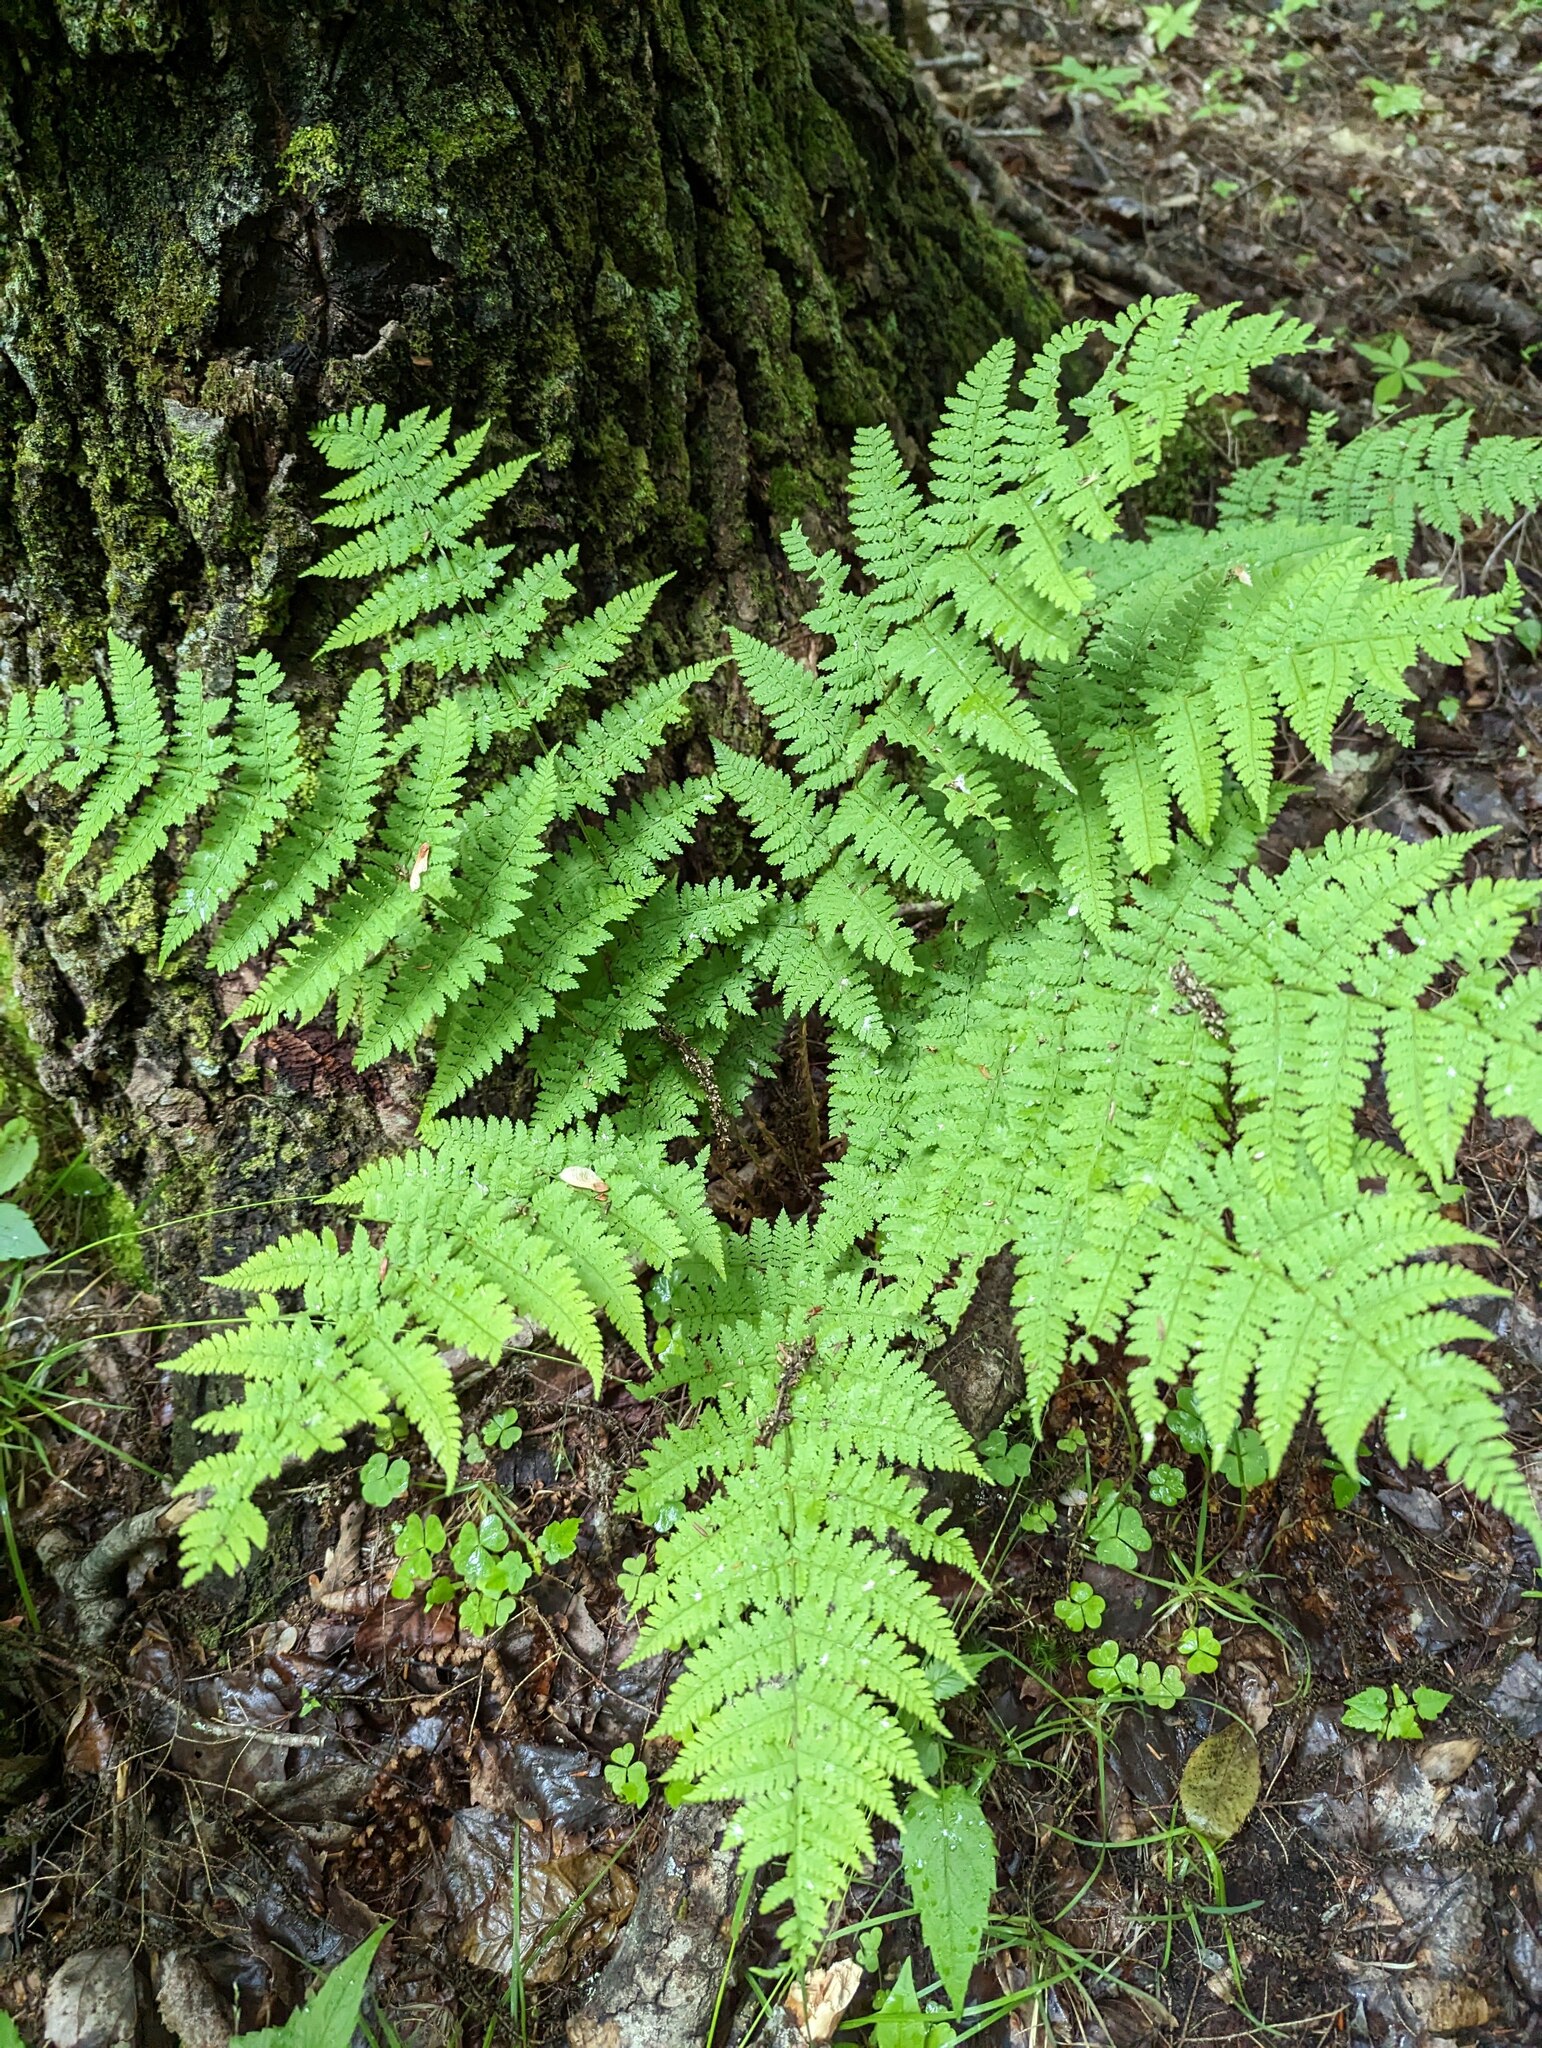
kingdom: Plantae
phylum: Tracheophyta
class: Polypodiopsida
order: Polypodiales
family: Dryopteridaceae
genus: Dryopteris
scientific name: Dryopteris intermedia
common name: Evergreen wood fern
